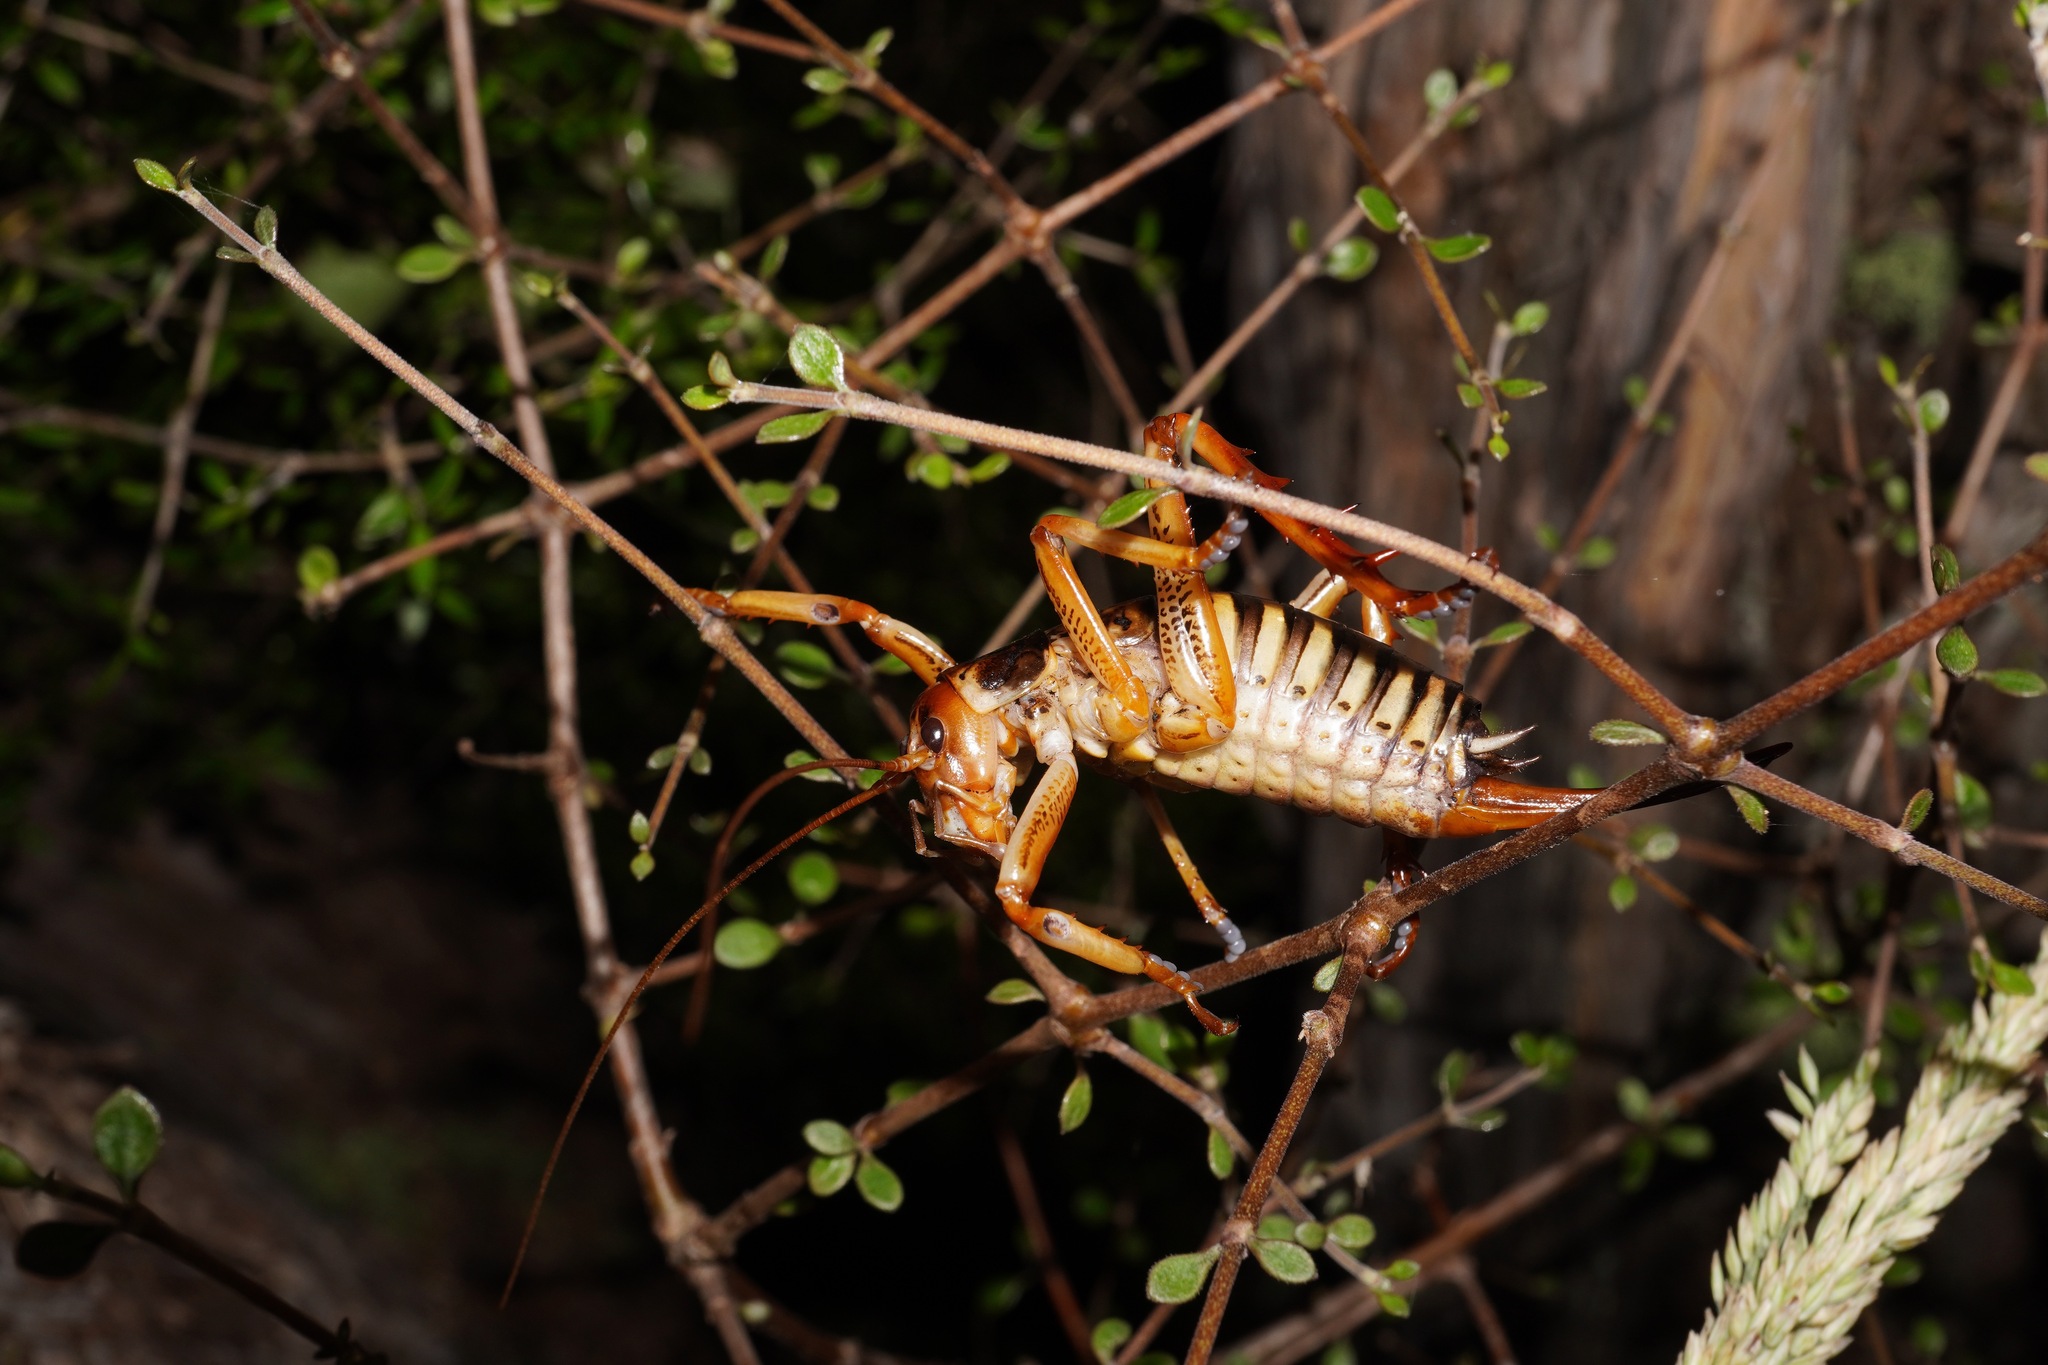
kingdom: Animalia
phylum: Arthropoda
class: Insecta
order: Orthoptera
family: Anostostomatidae
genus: Hemideina
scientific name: Hemideina crassidens
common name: Wellington tree weta
